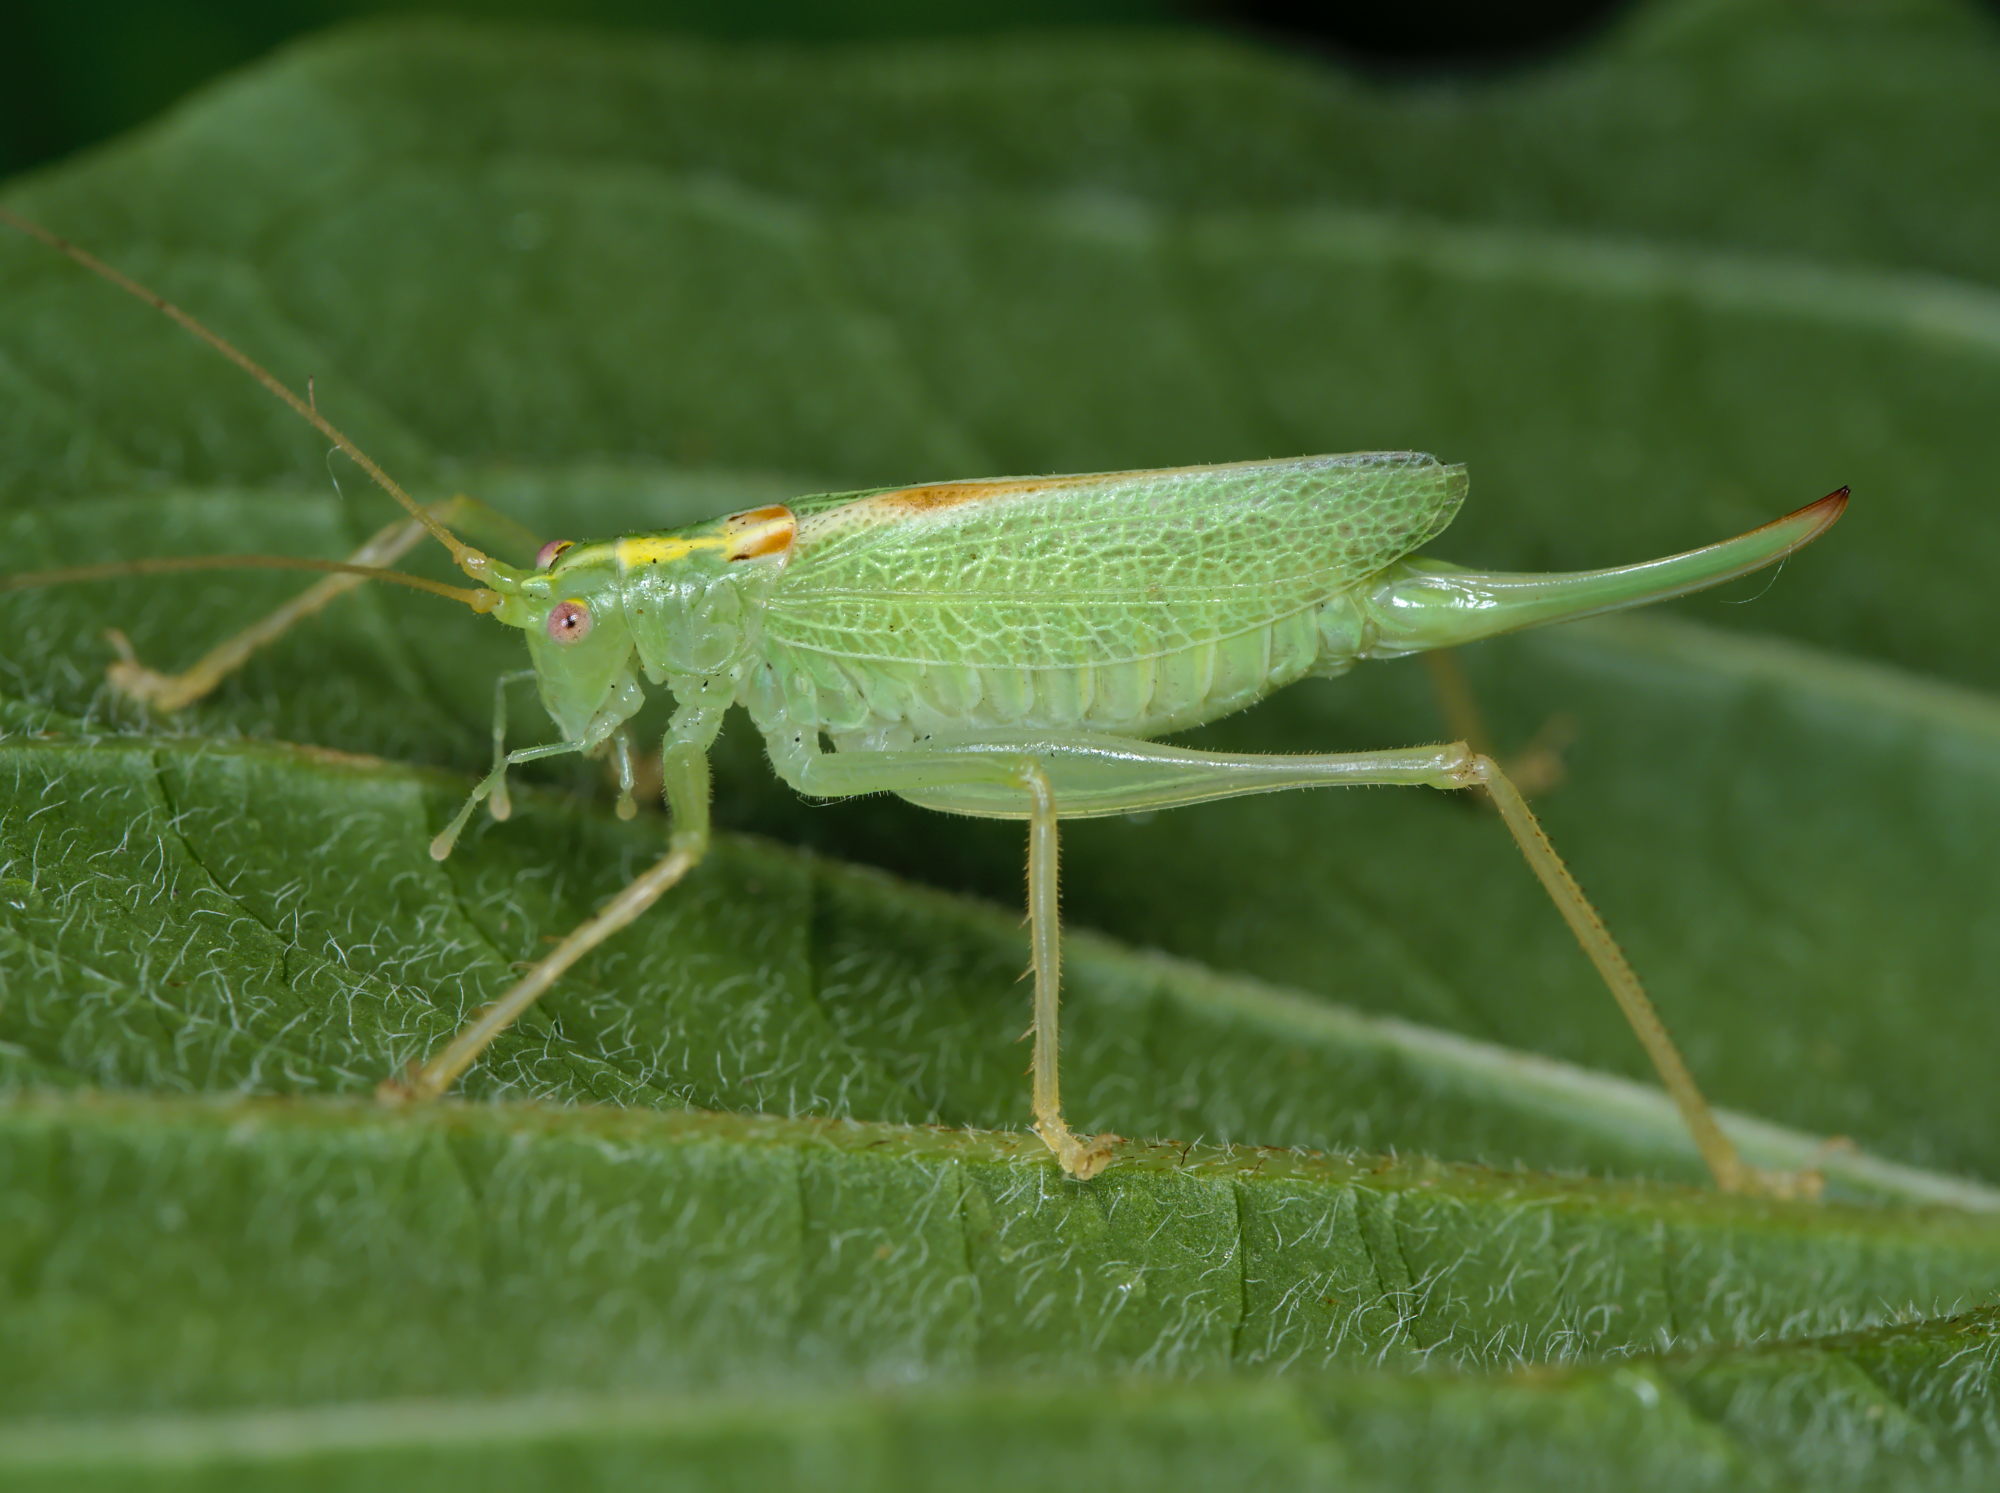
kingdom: Animalia
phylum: Arthropoda
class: Insecta
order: Orthoptera
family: Tettigoniidae
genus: Meconema
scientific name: Meconema thalassinum
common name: Oak bush-cricket
